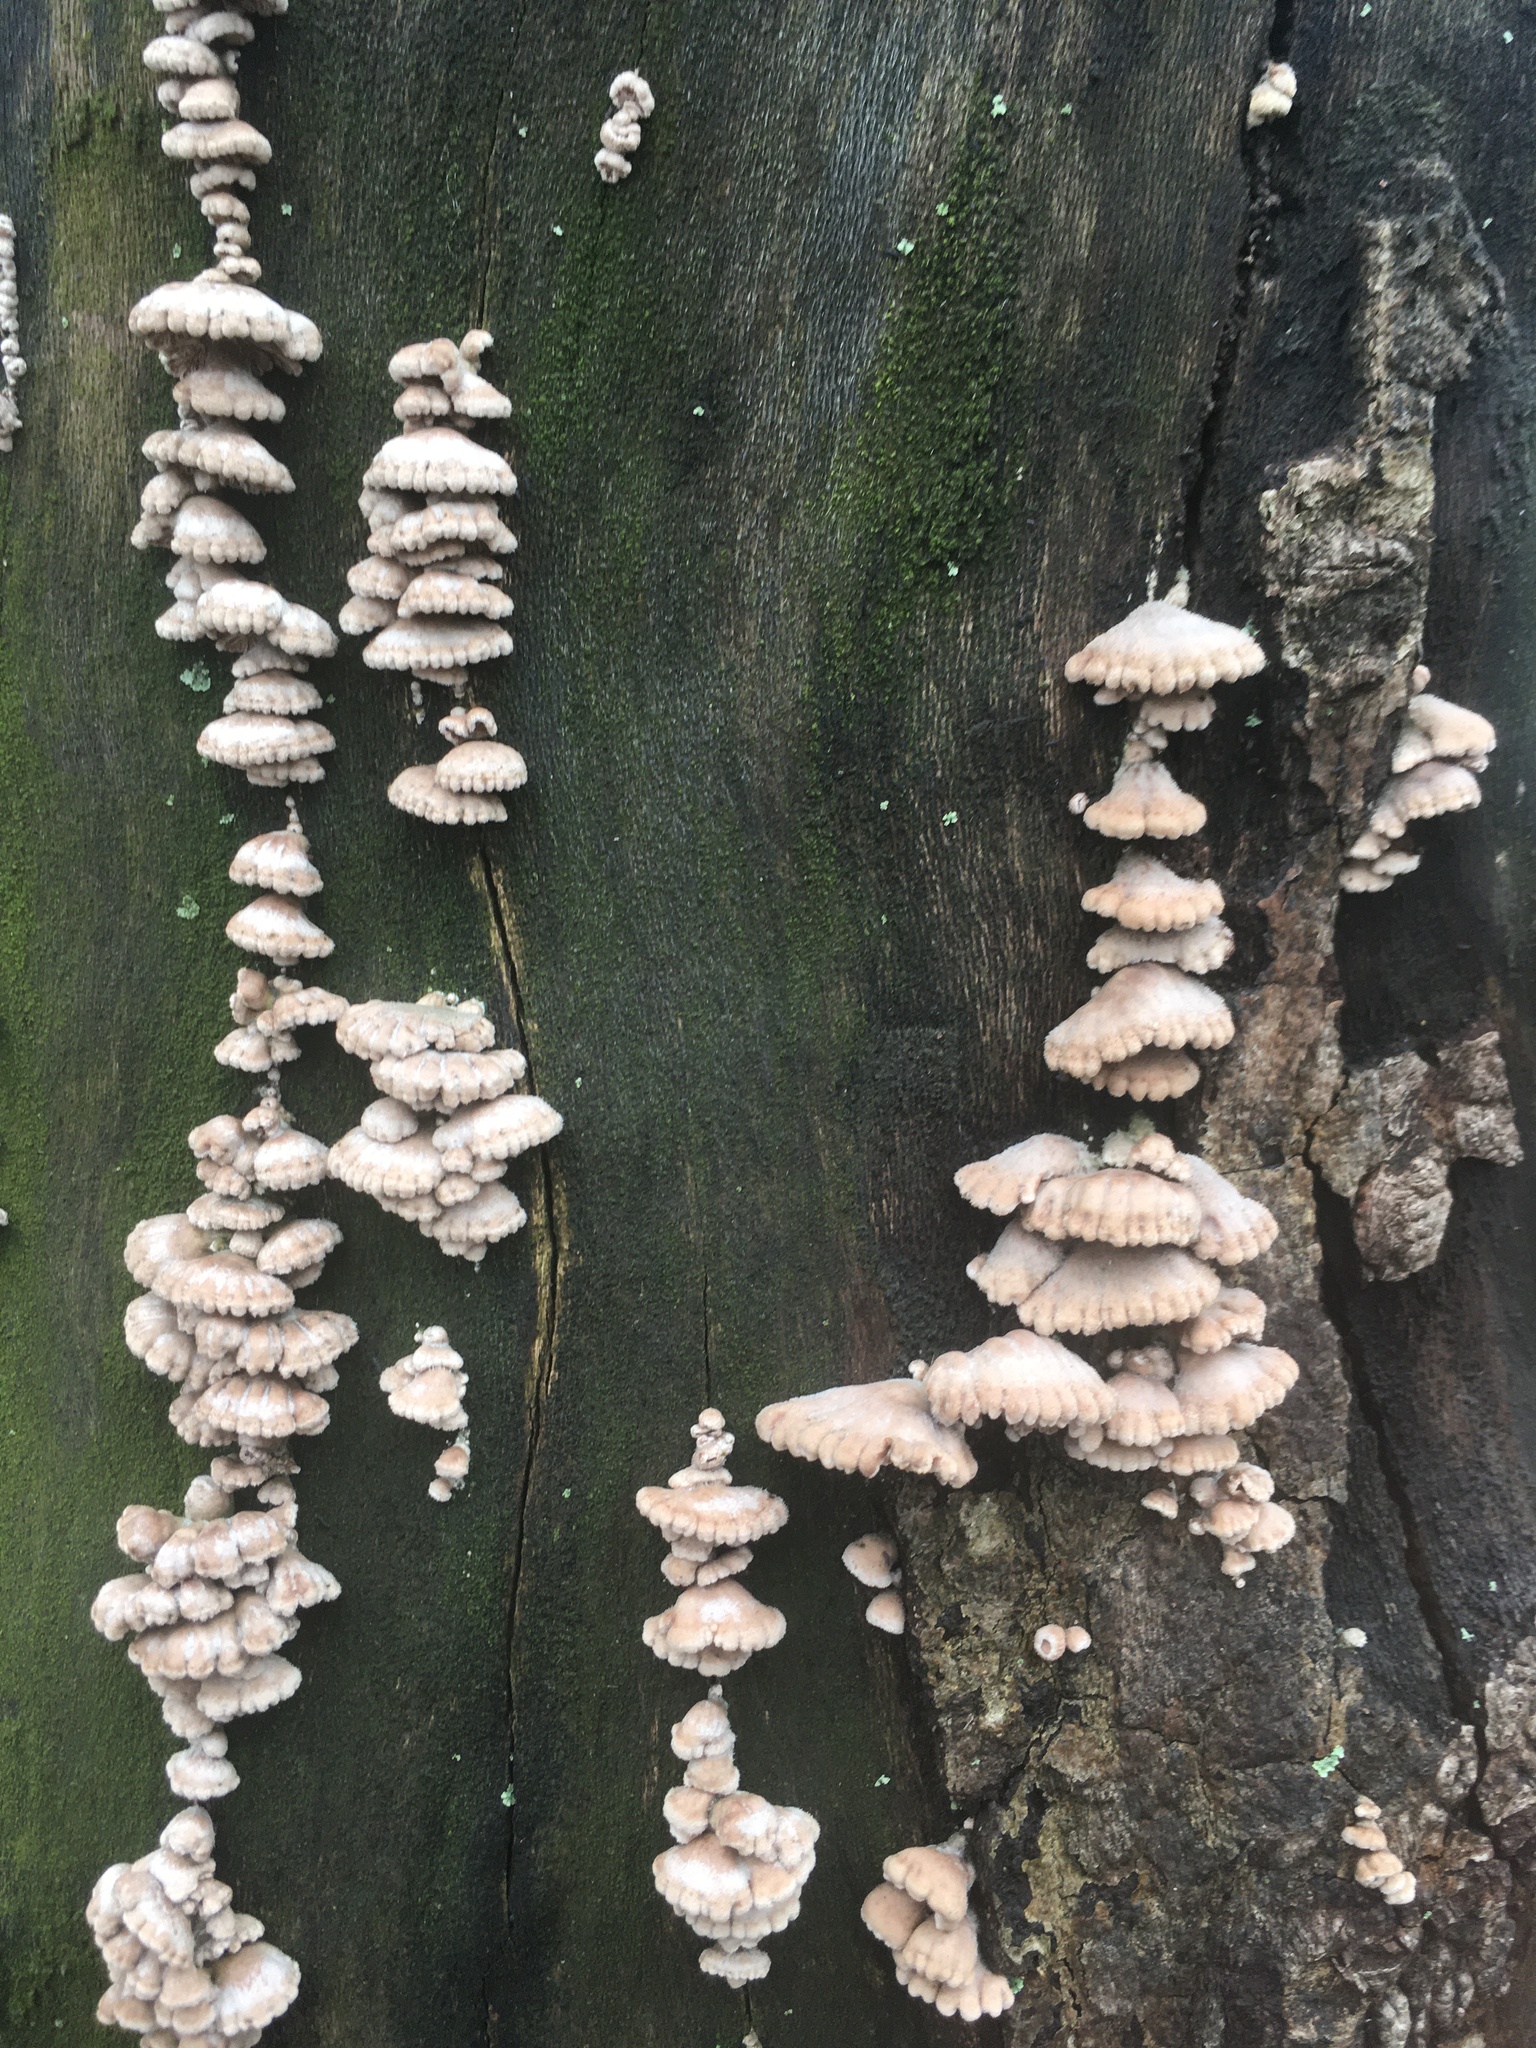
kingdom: Fungi
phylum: Basidiomycota
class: Agaricomycetes
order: Agaricales
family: Schizophyllaceae
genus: Schizophyllum
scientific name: Schizophyllum commune
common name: Common porecrust
